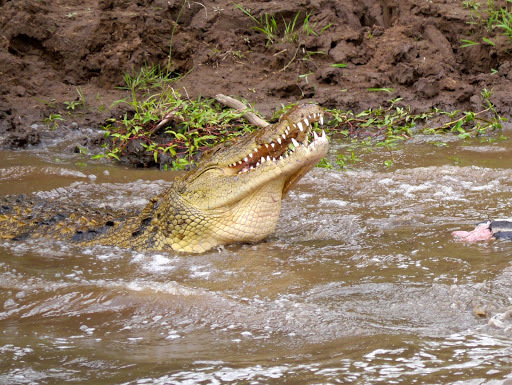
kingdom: Animalia
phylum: Chordata
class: Crocodylia
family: Crocodylidae
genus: Crocodylus
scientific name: Crocodylus niloticus
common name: Nile crocodile
